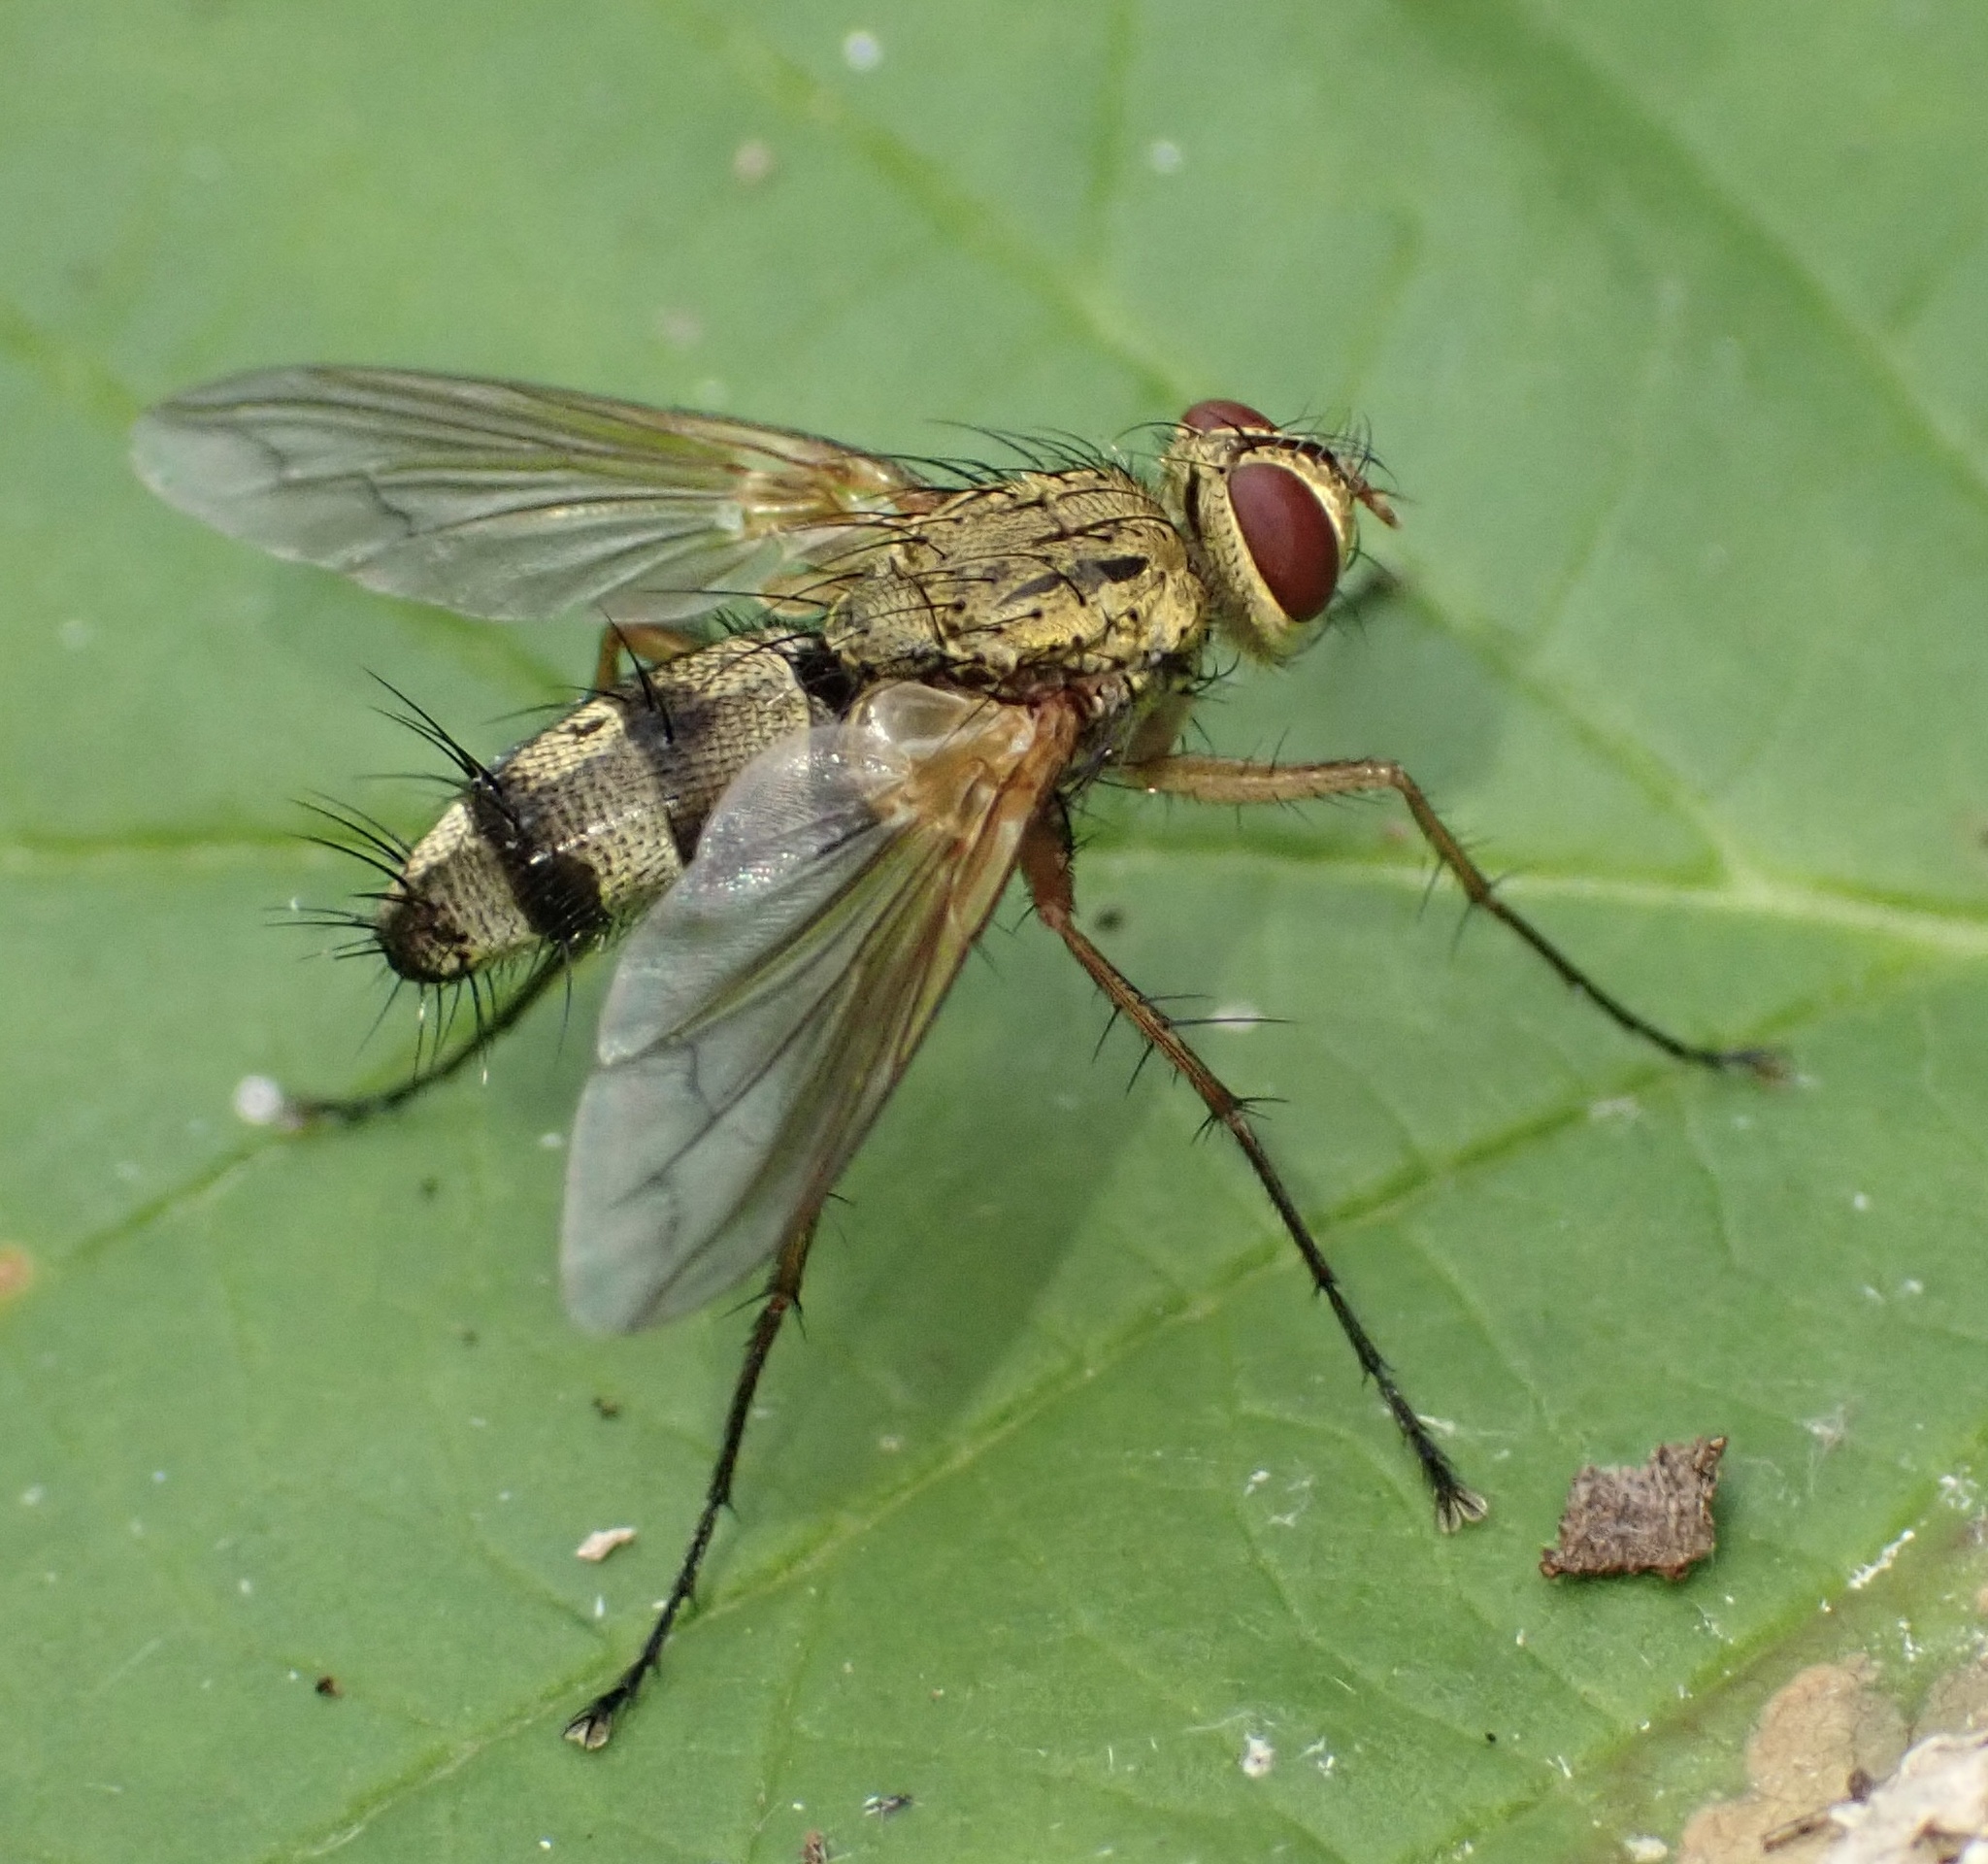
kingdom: Animalia
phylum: Arthropoda
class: Insecta
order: Diptera
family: Tachinidae
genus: Dexiosoma
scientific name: Dexiosoma caninum
